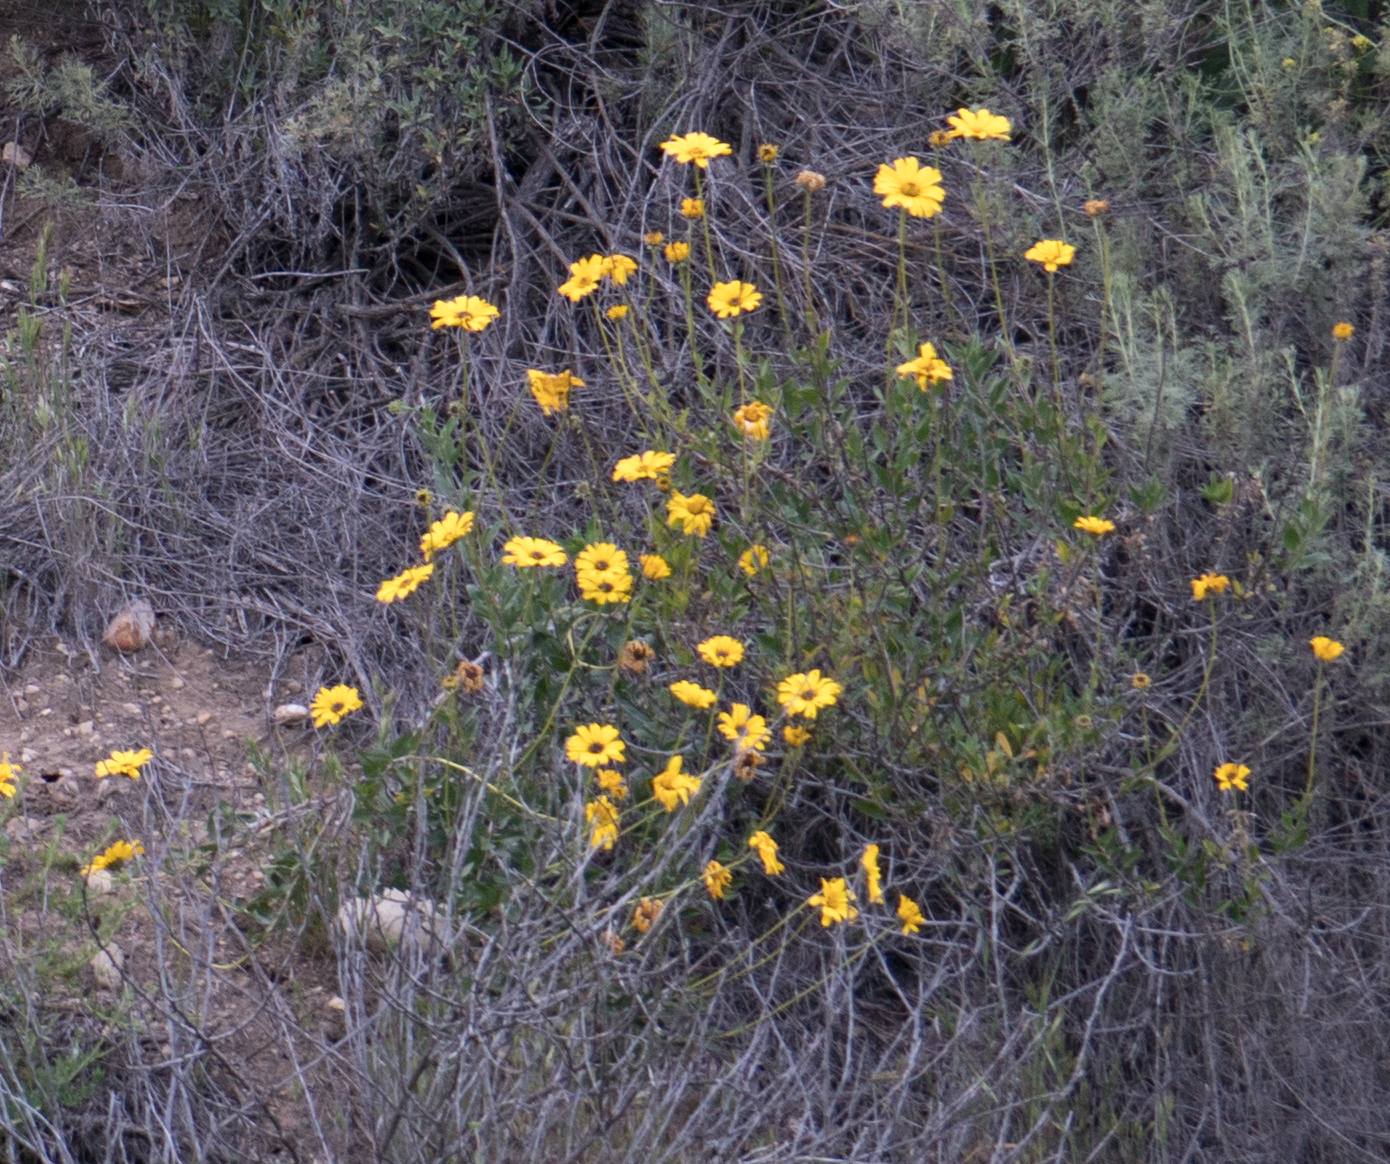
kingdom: Plantae
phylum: Tracheophyta
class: Magnoliopsida
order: Asterales
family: Asteraceae
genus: Encelia
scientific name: Encelia californica
